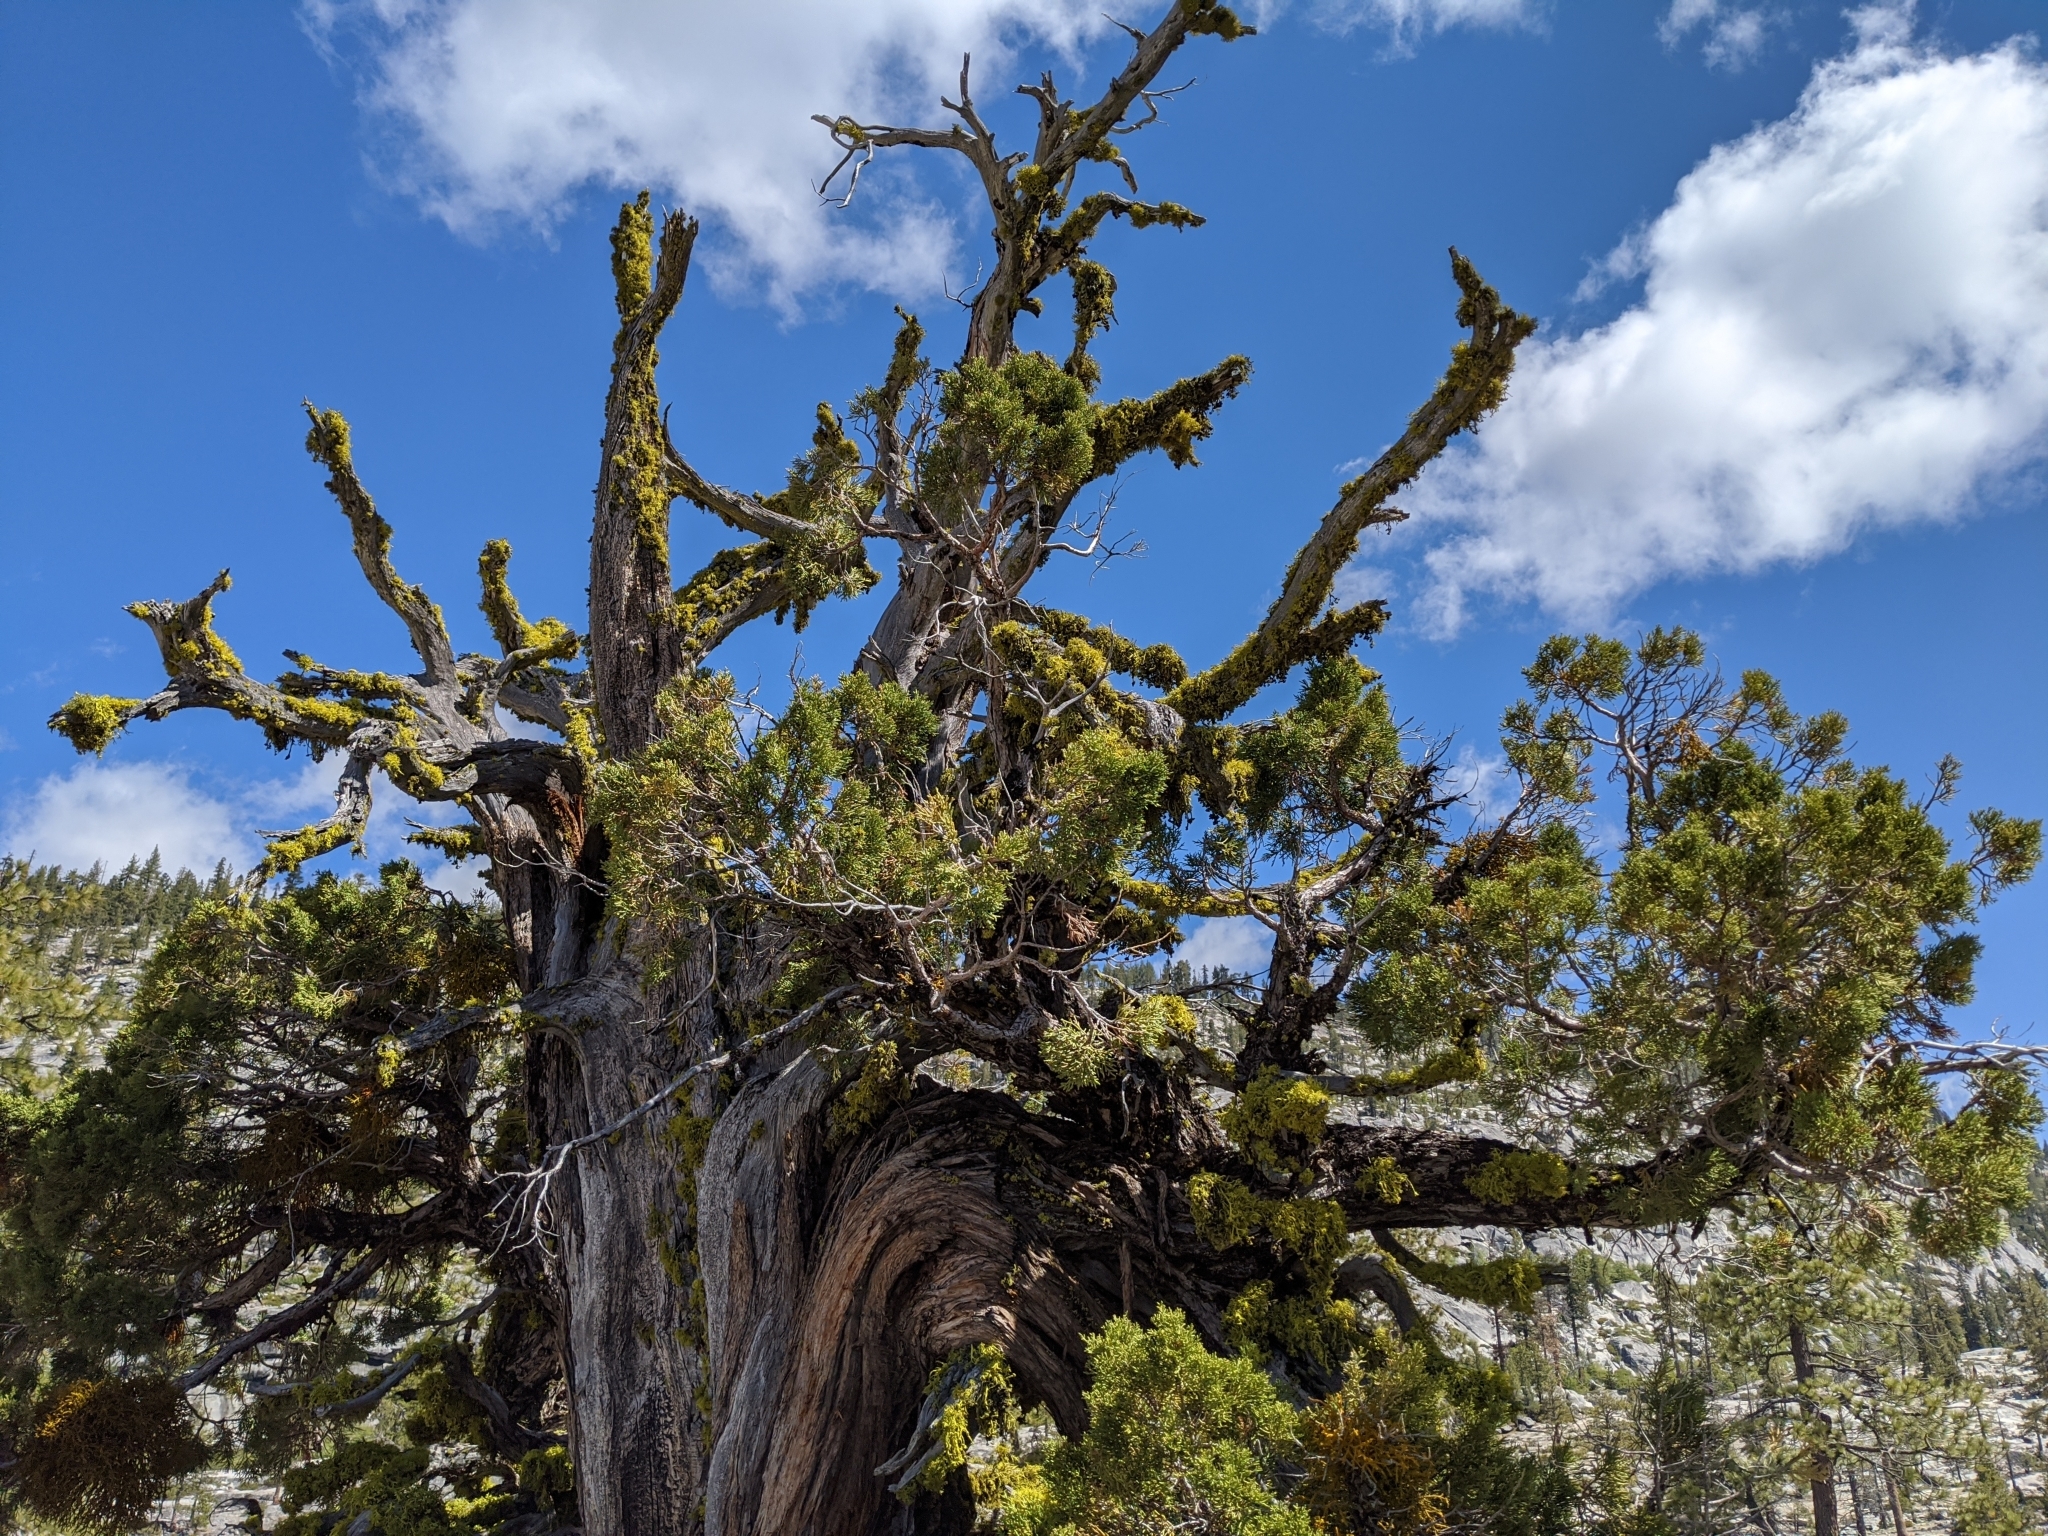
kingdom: Plantae
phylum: Tracheophyta
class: Pinopsida
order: Pinales
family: Cupressaceae
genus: Juniperus
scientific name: Juniperus occidentalis
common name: Western juniper
